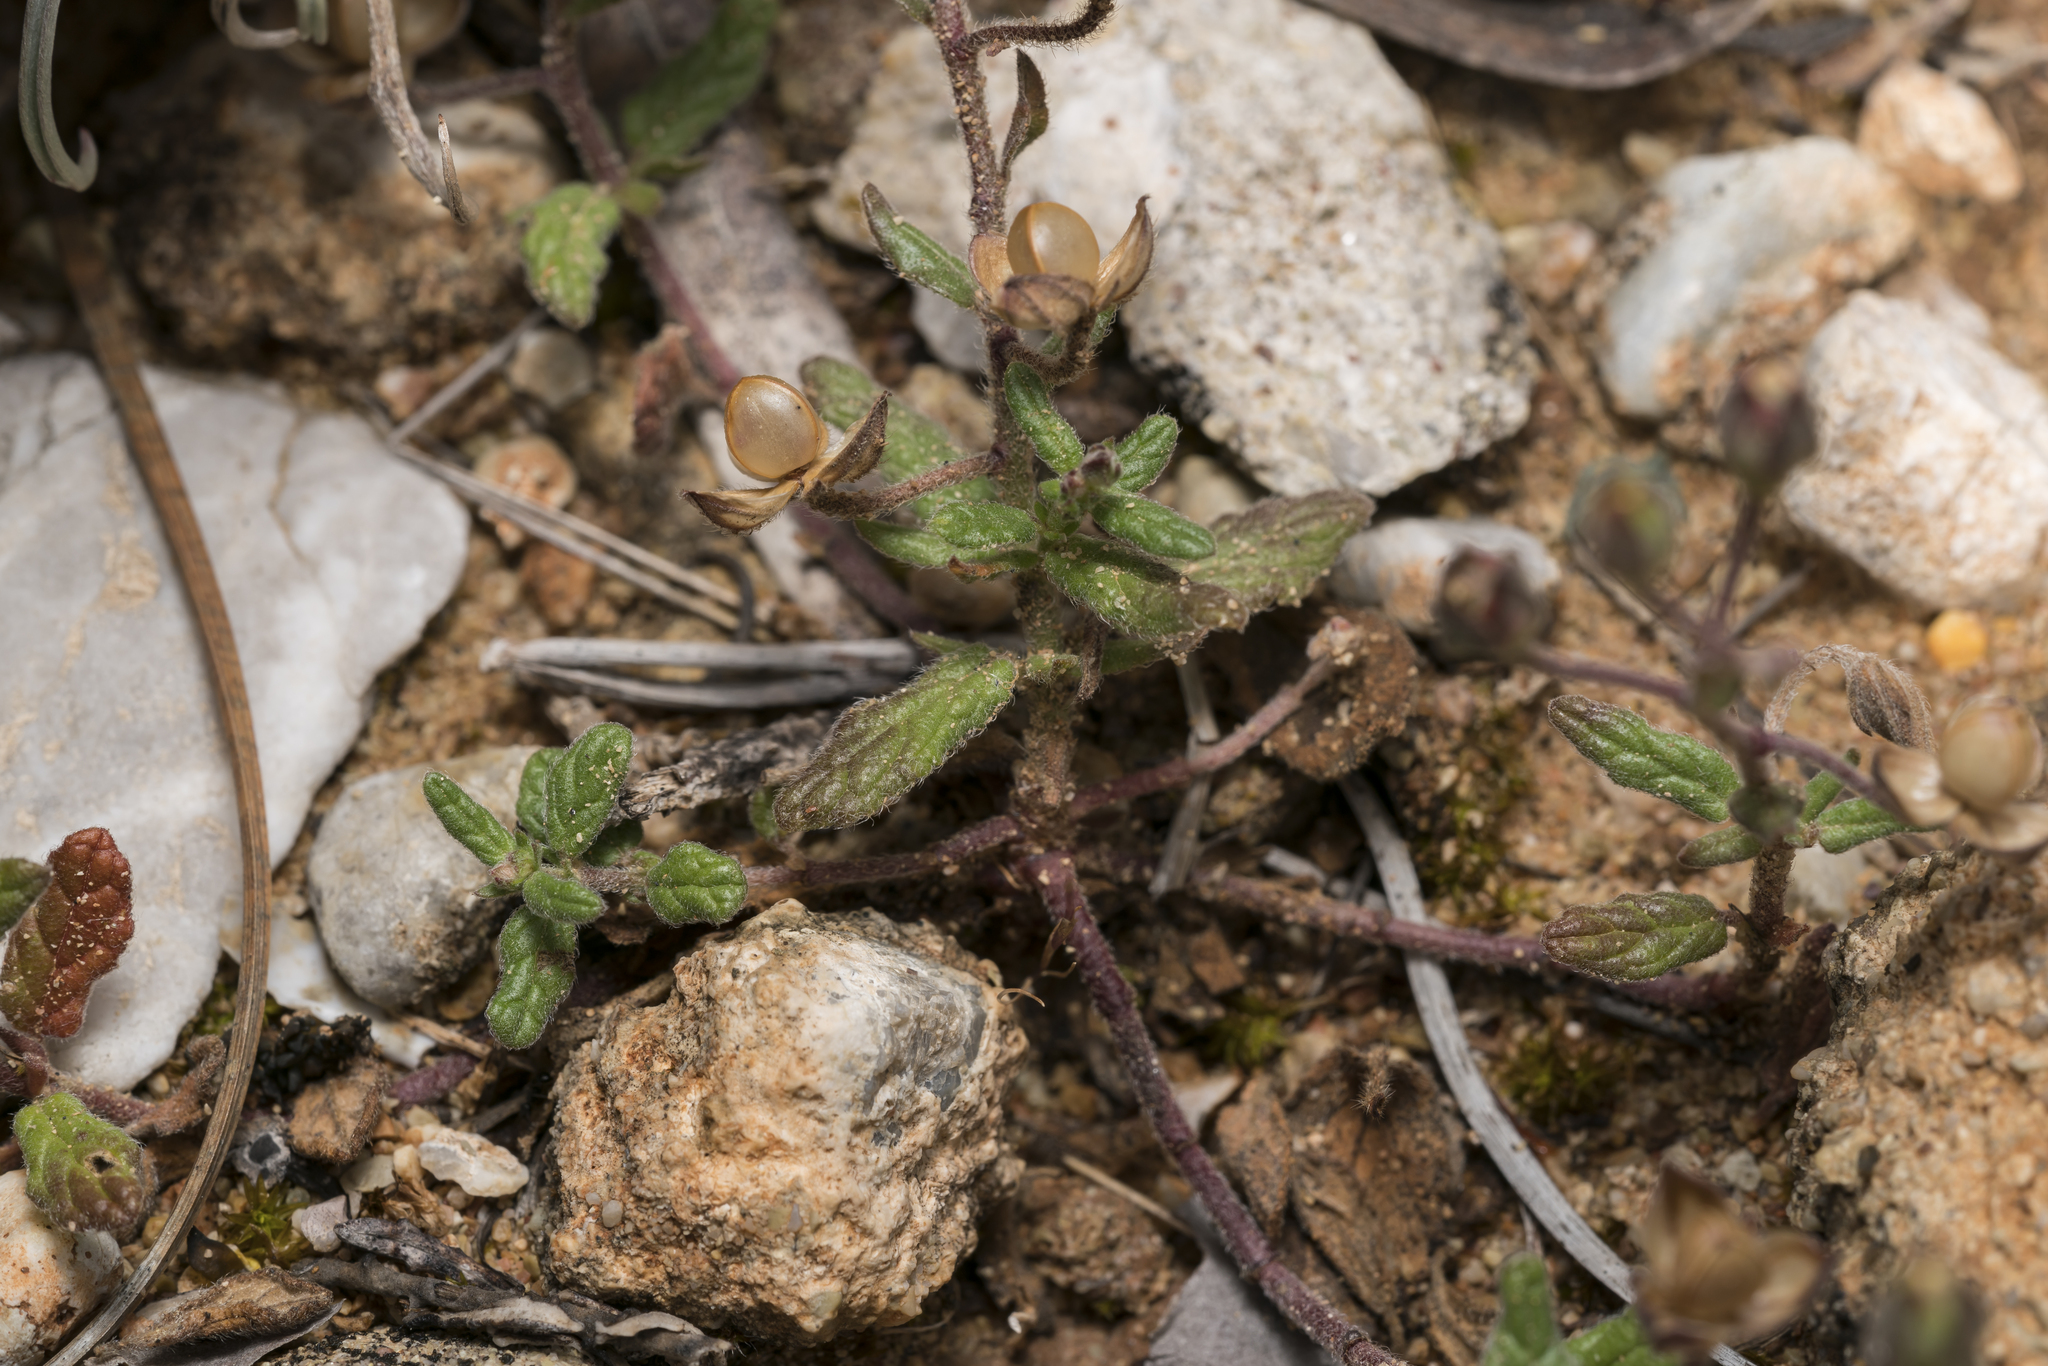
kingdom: Plantae
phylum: Tracheophyta
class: Magnoliopsida
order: Malvales
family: Cistaceae
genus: Helianthemum
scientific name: Helianthemum salicifolium
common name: Willowleaf frostweed
